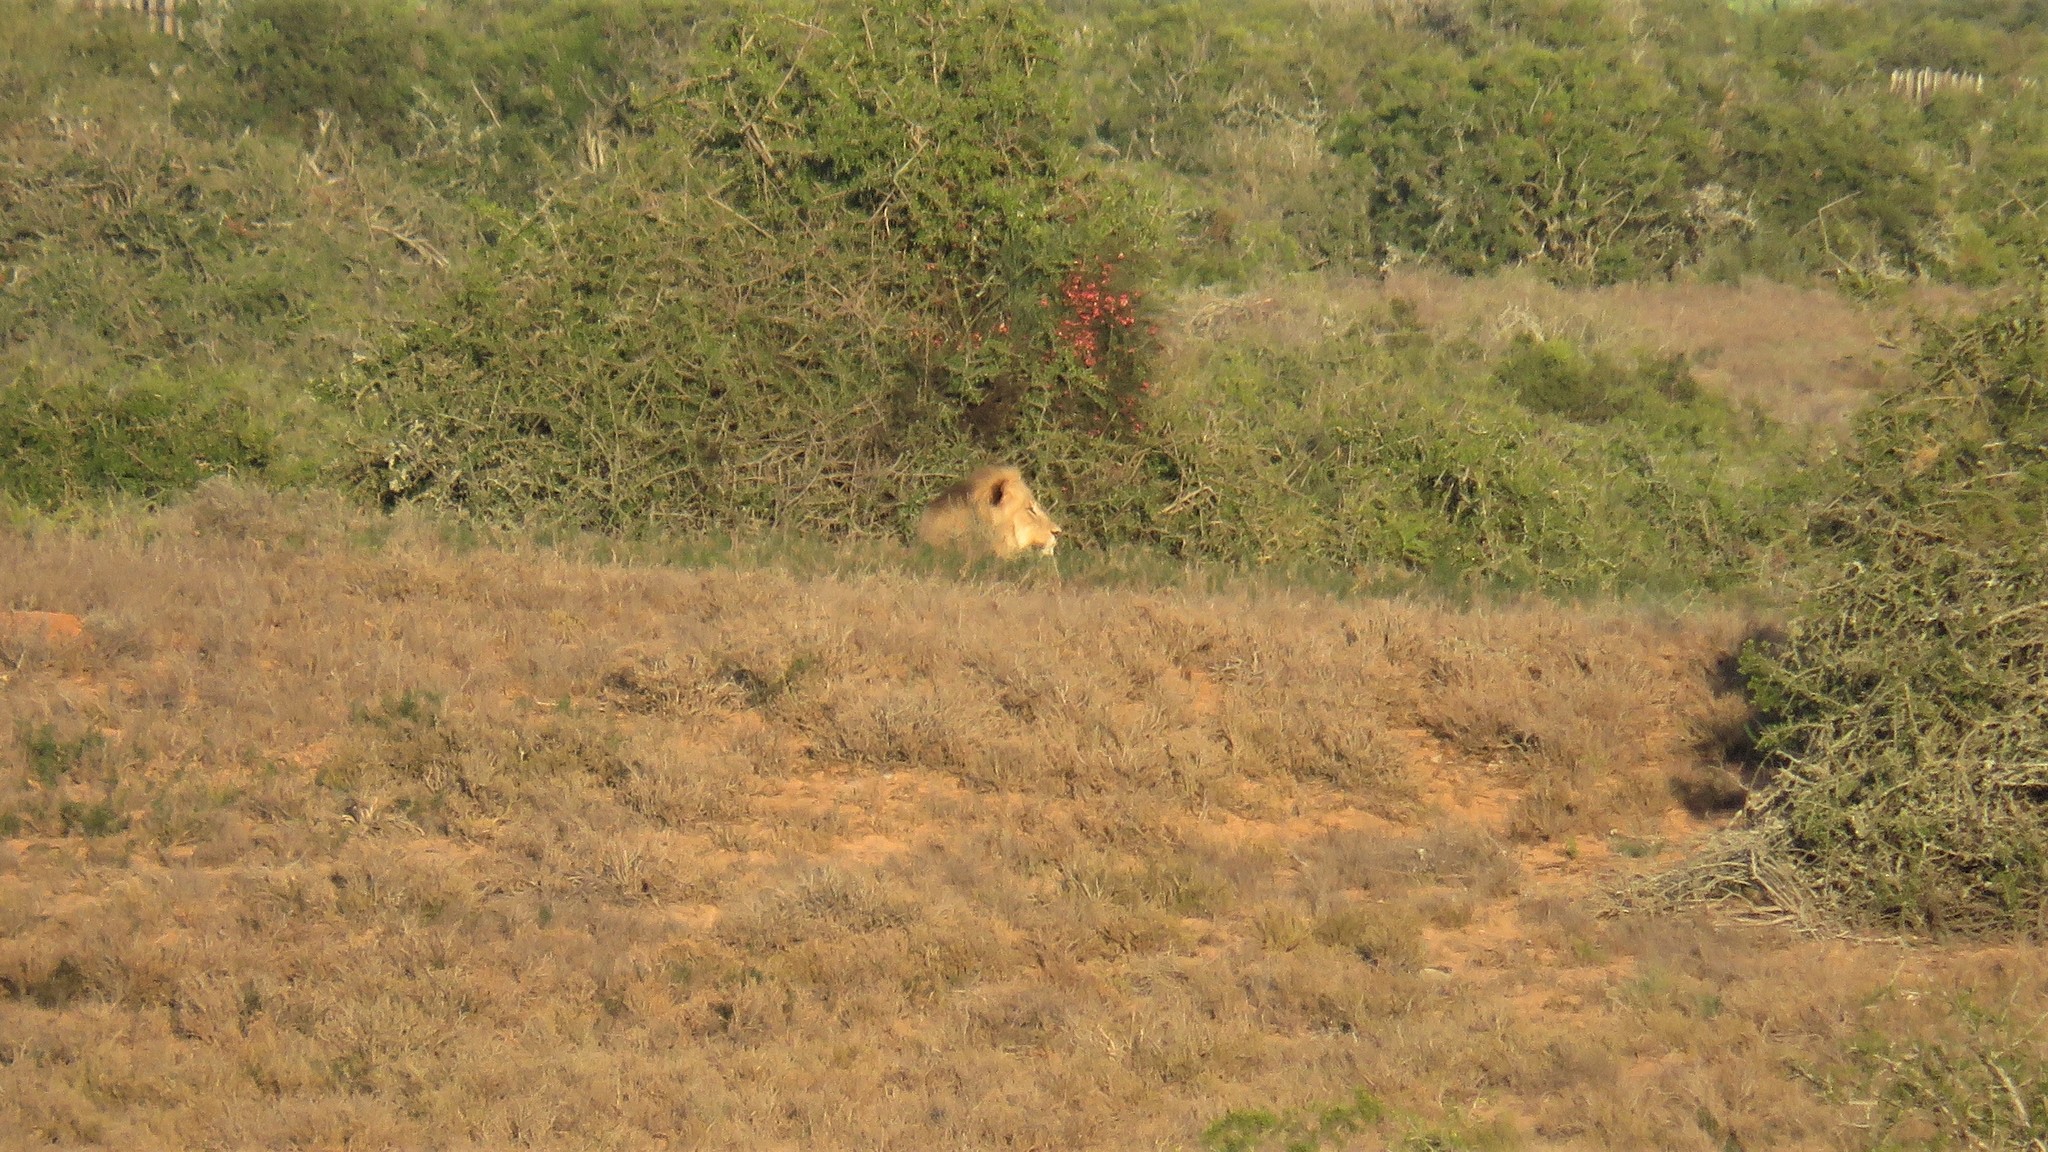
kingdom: Animalia
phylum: Chordata
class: Mammalia
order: Carnivora
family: Felidae
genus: Panthera
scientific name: Panthera leo
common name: Lion
